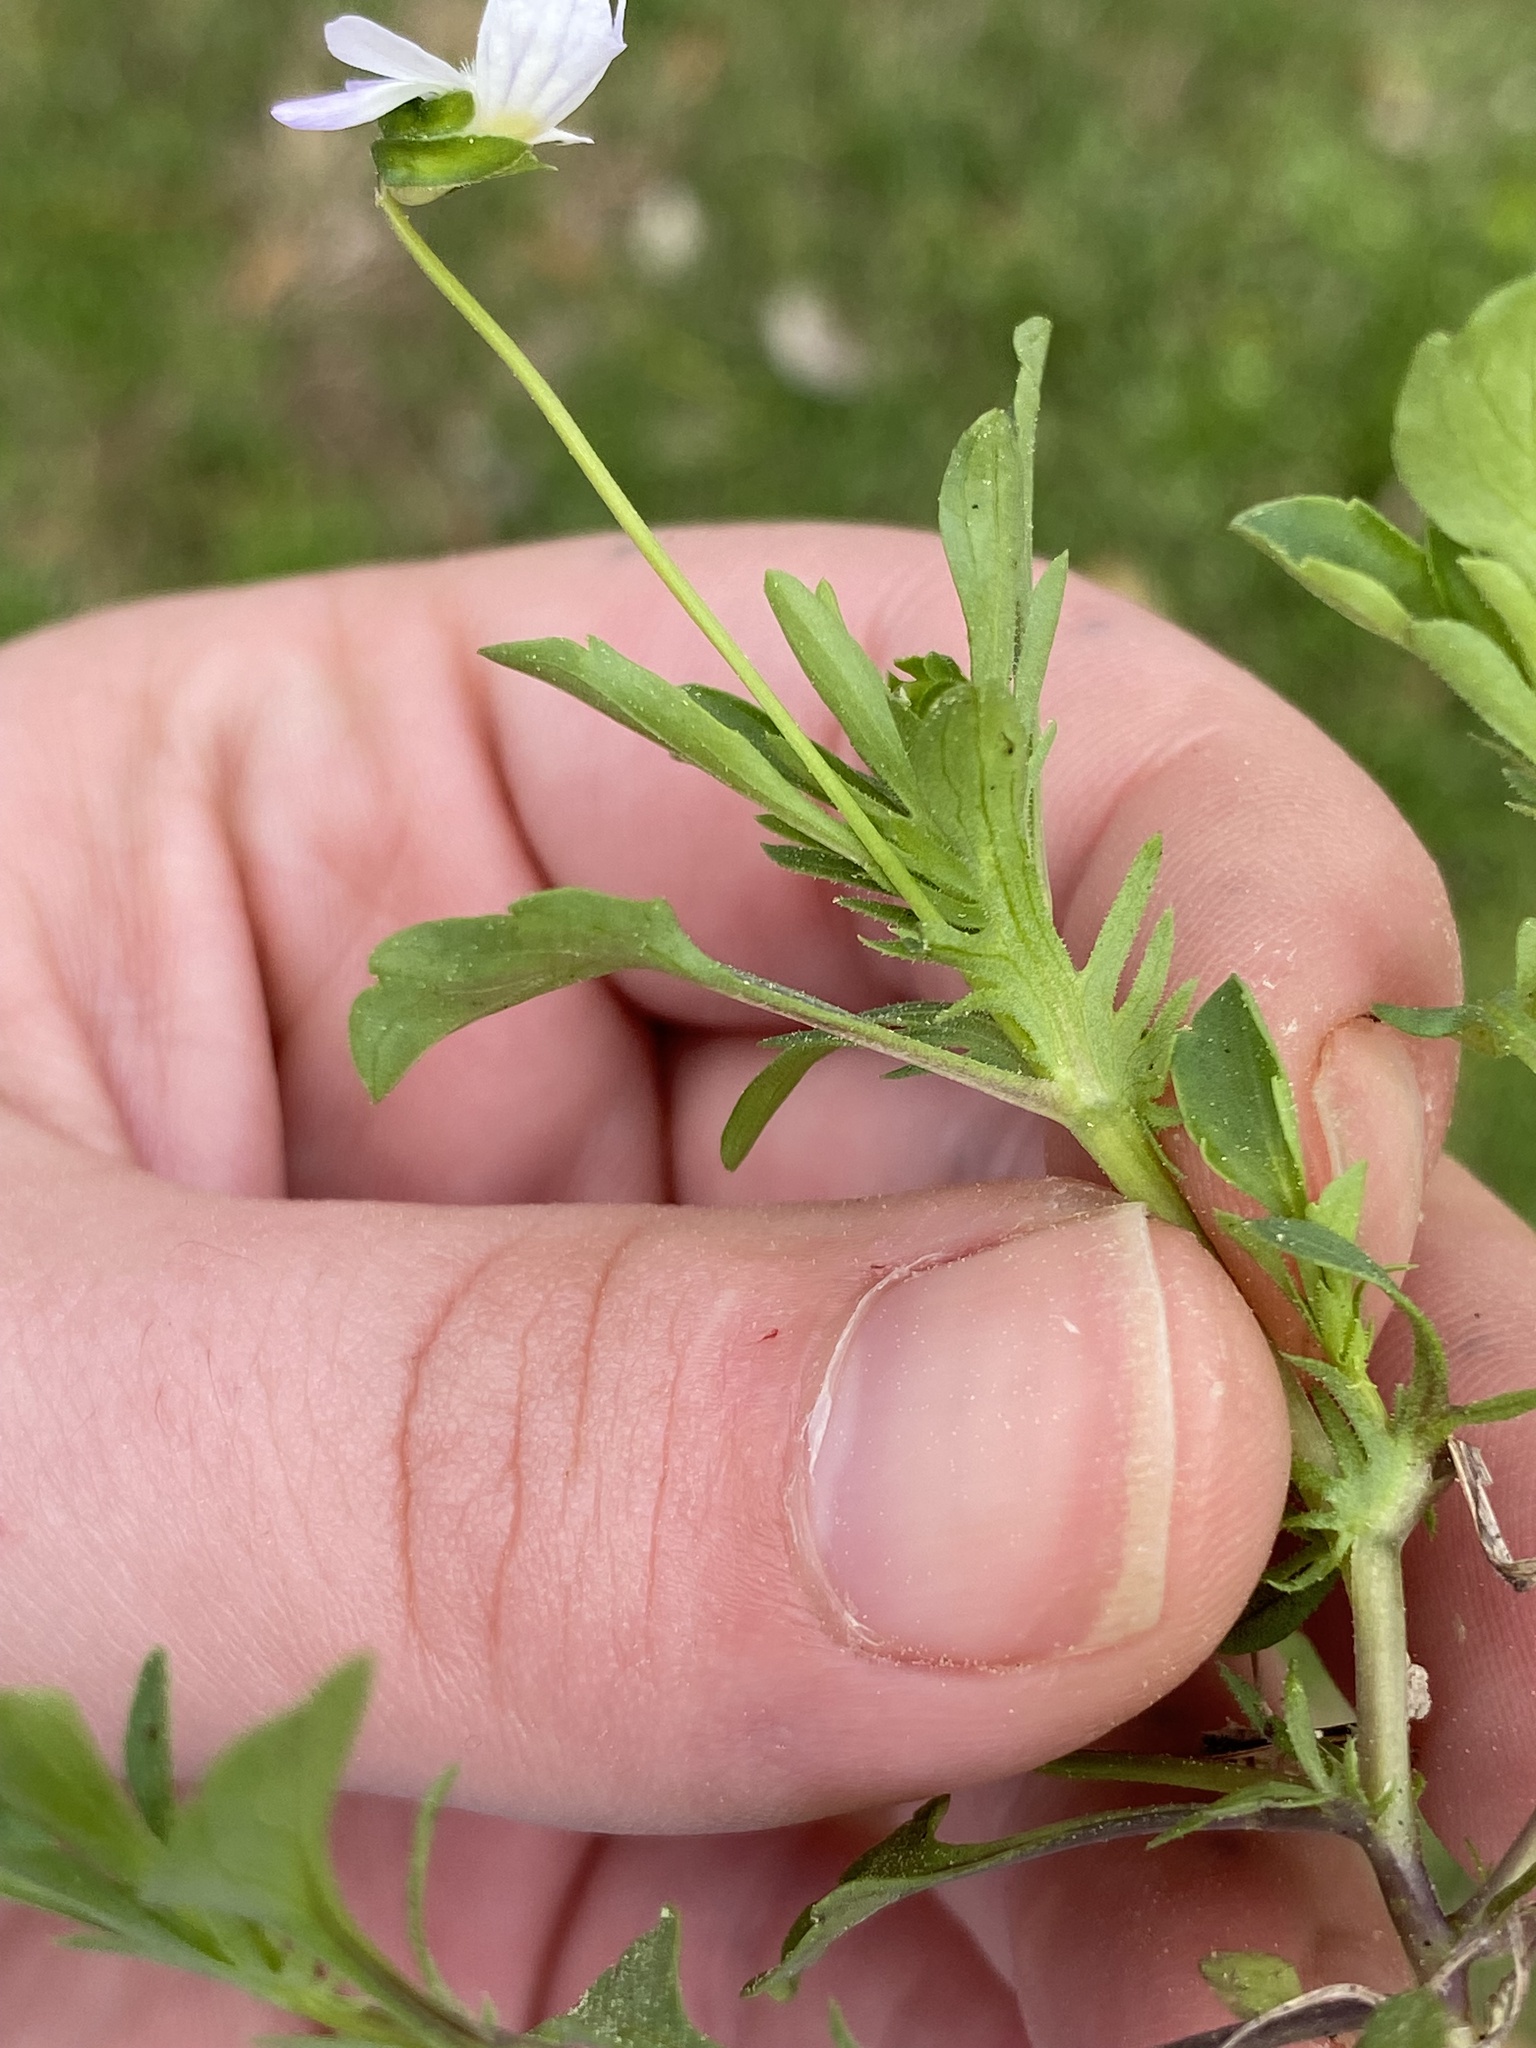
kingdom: Plantae
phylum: Tracheophyta
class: Magnoliopsida
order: Malpighiales
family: Violaceae
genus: Viola
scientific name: Viola rafinesquei
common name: American field pansy
